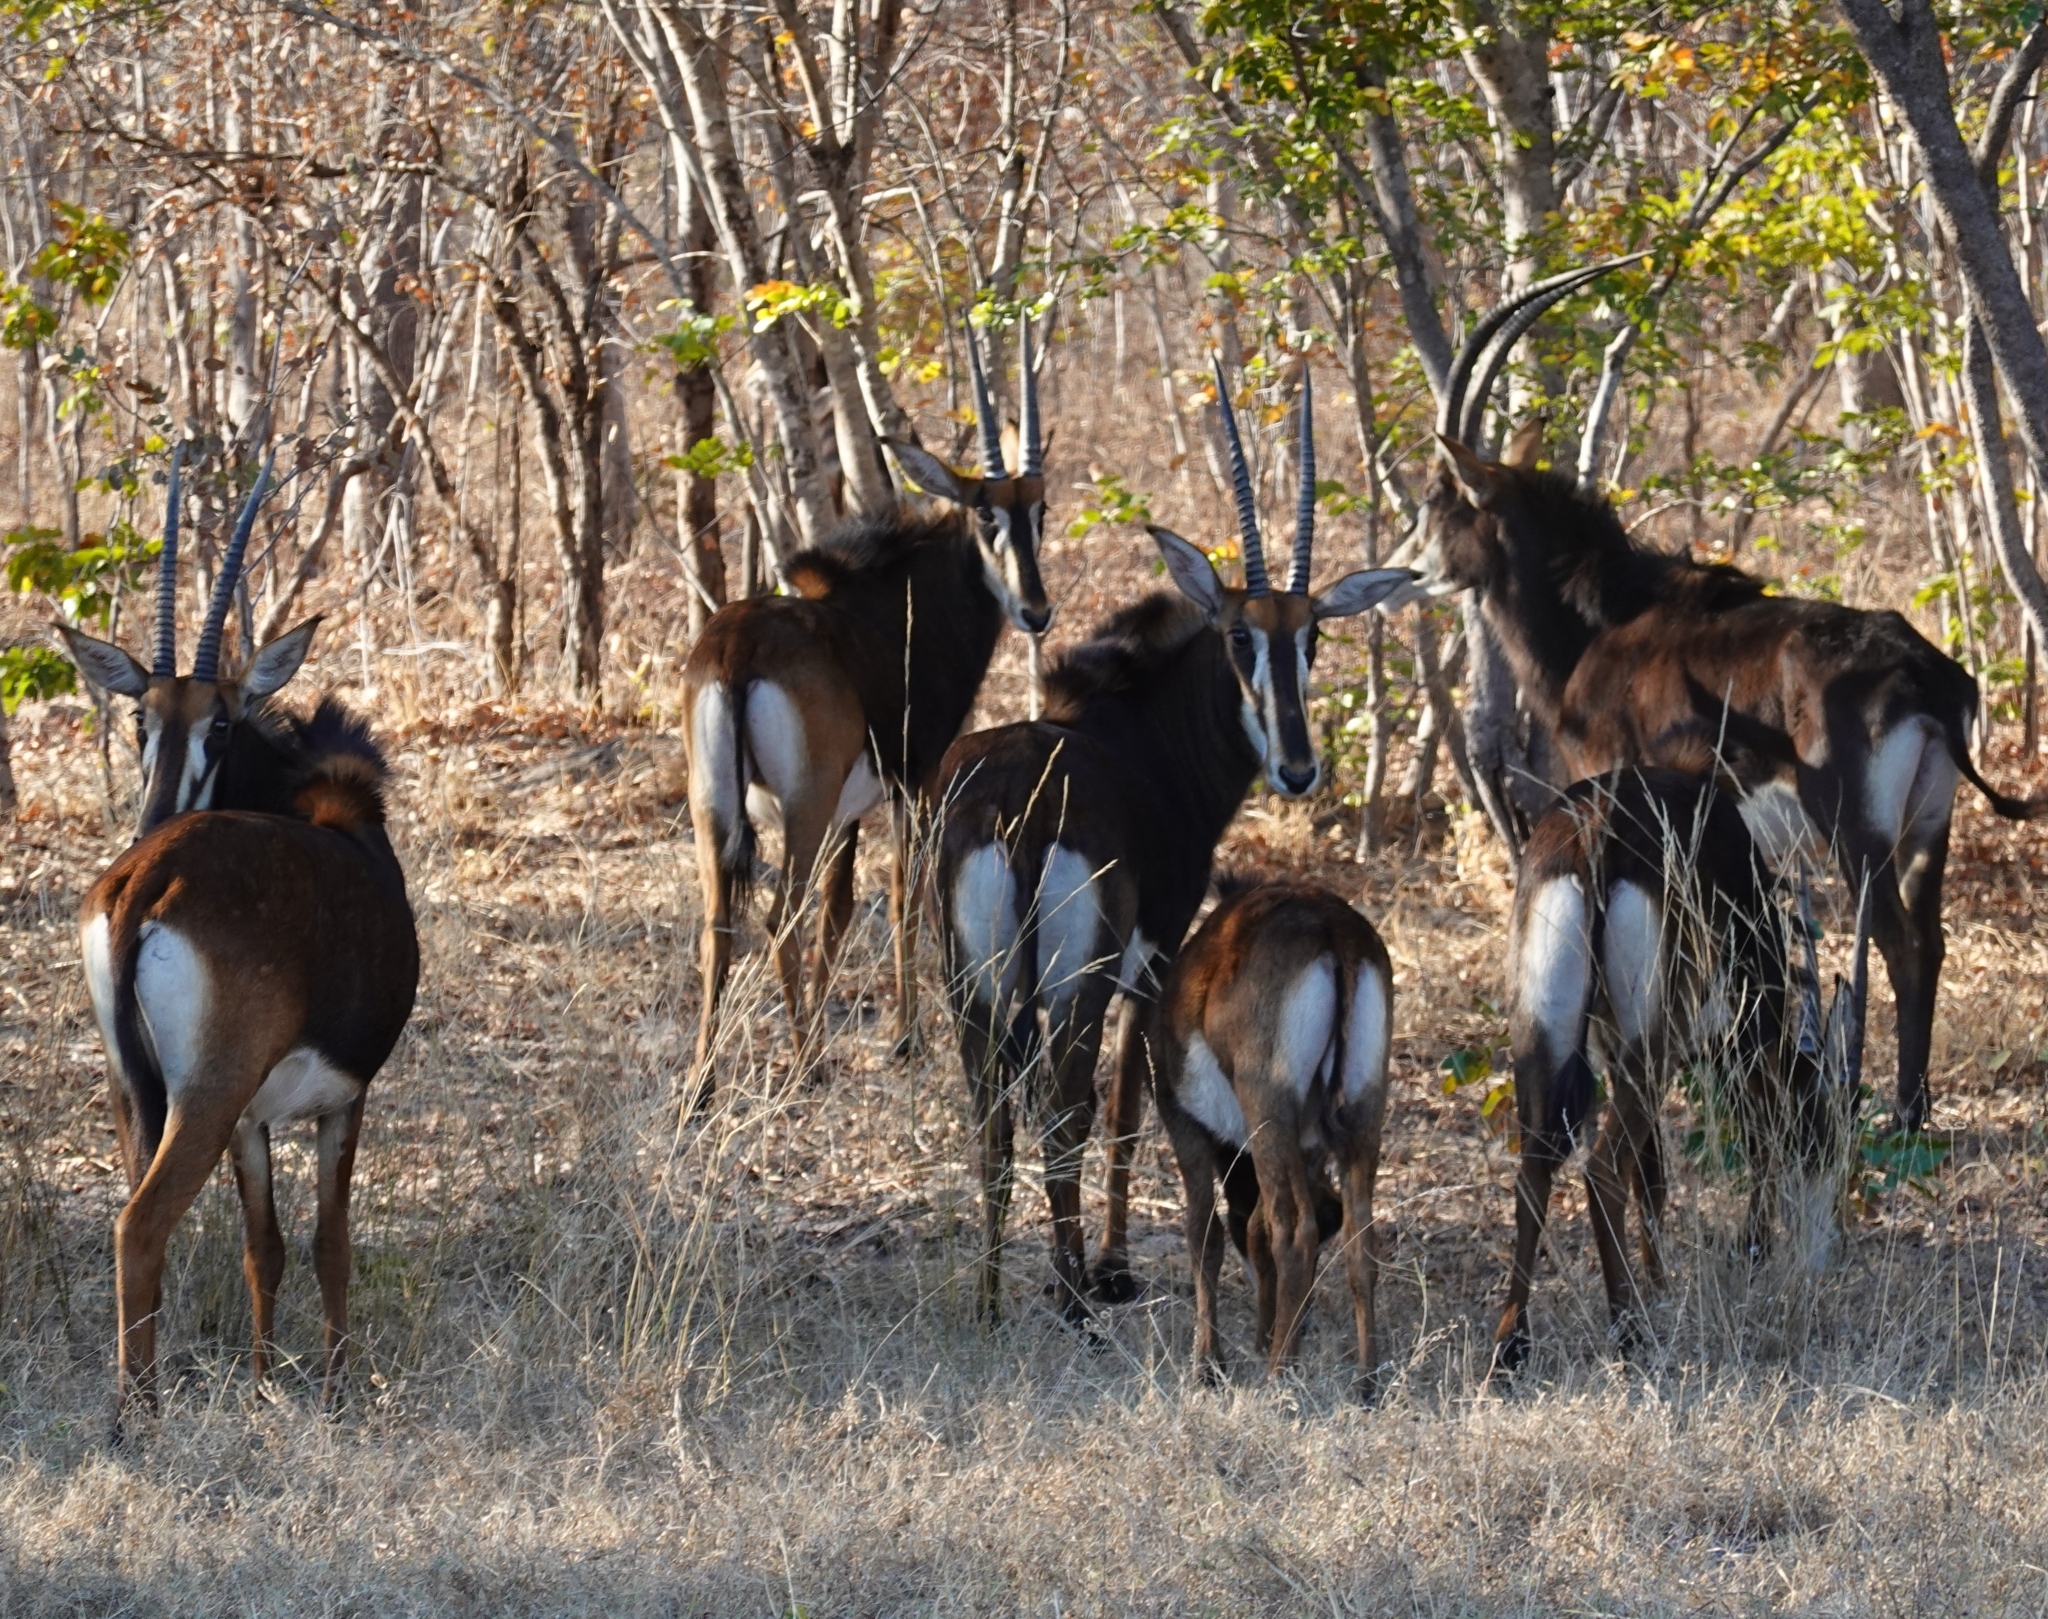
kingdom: Animalia
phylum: Chordata
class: Mammalia
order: Artiodactyla
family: Bovidae
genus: Hippotragus
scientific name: Hippotragus niger
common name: Sable antelope
